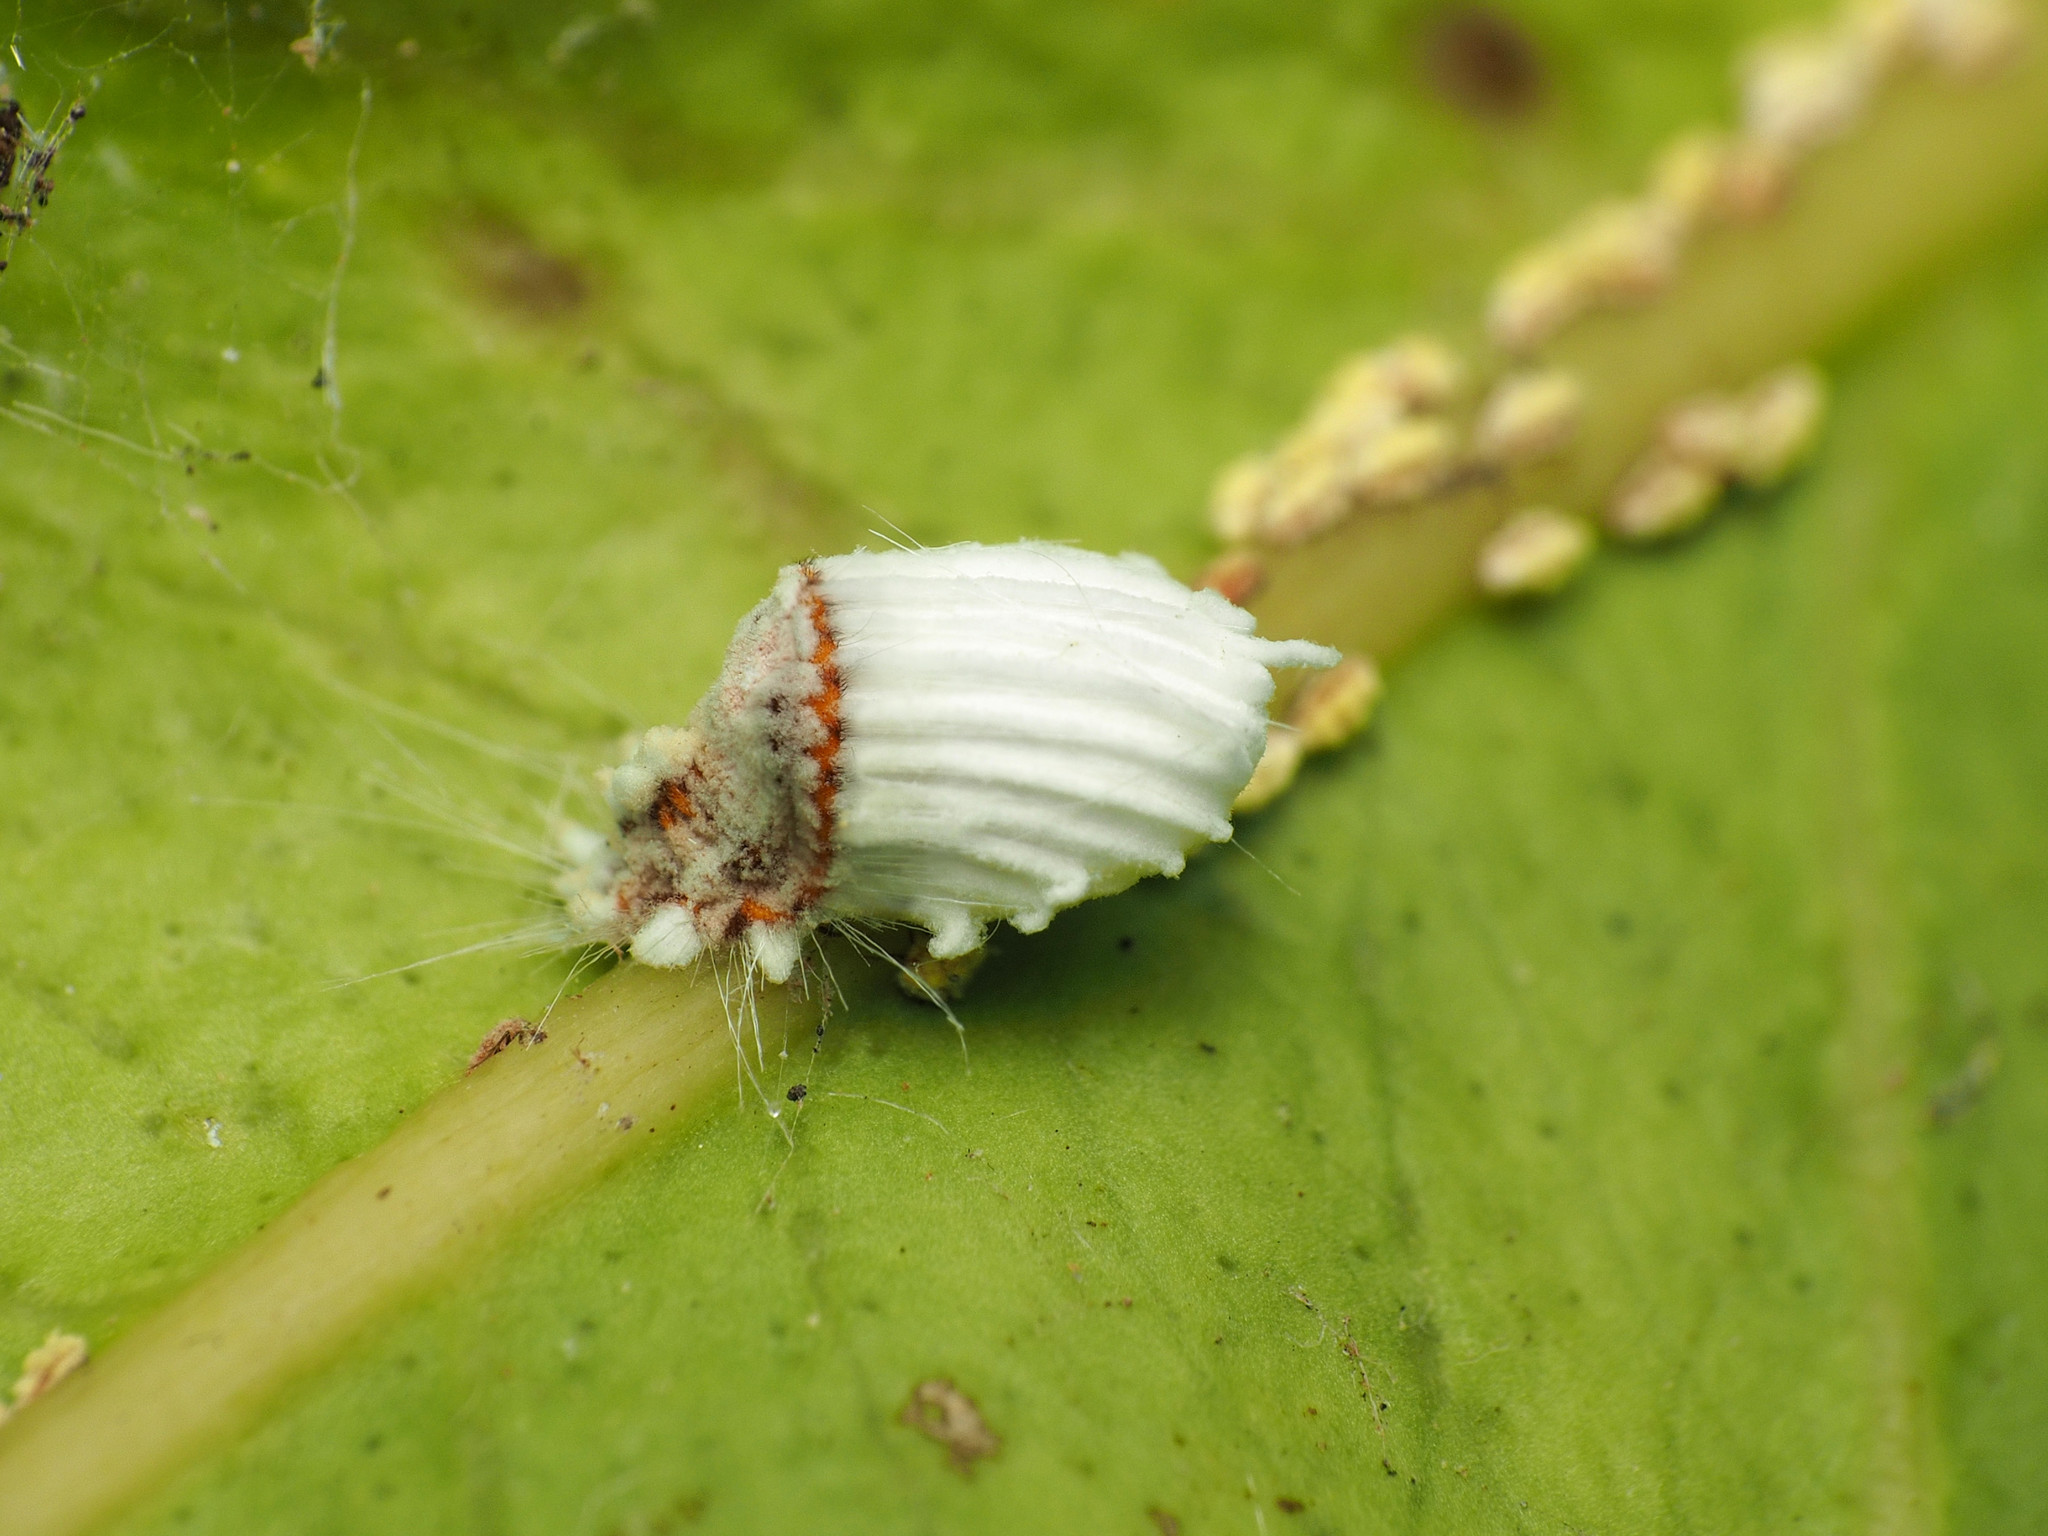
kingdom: Animalia
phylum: Arthropoda
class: Insecta
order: Hemiptera
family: Margarodidae
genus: Icerya
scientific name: Icerya purchasi
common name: Cottony cushion scale
